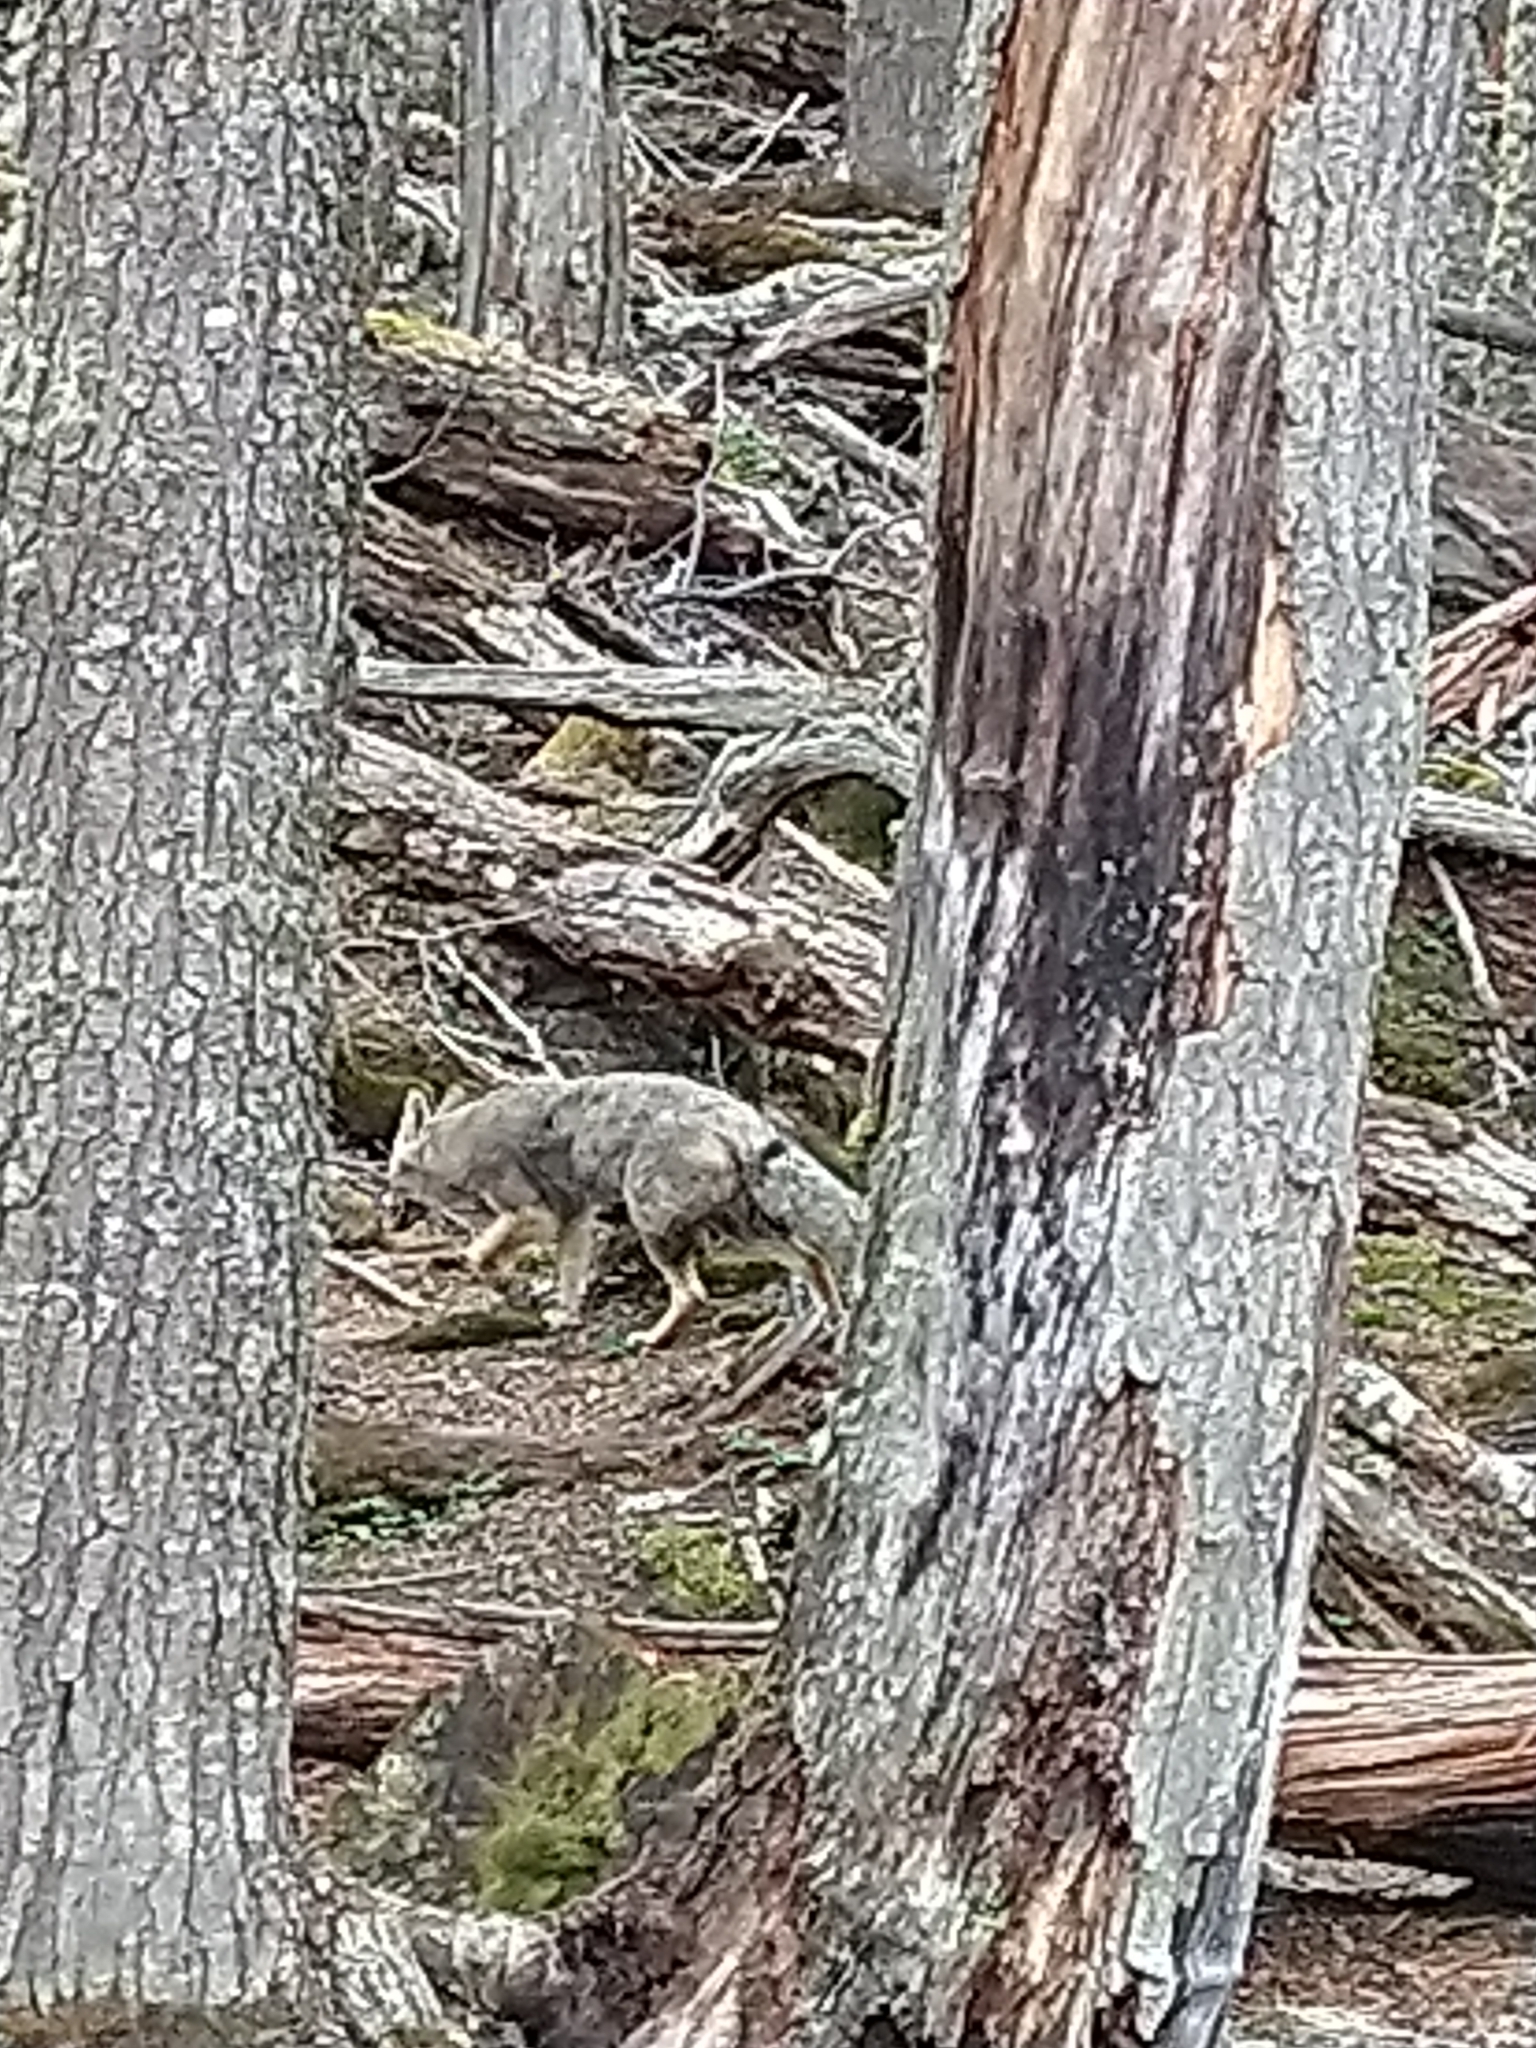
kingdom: Animalia
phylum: Chordata
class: Mammalia
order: Carnivora
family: Canidae
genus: Lycalopex
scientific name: Lycalopex gymnocercus
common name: Pampas fox
